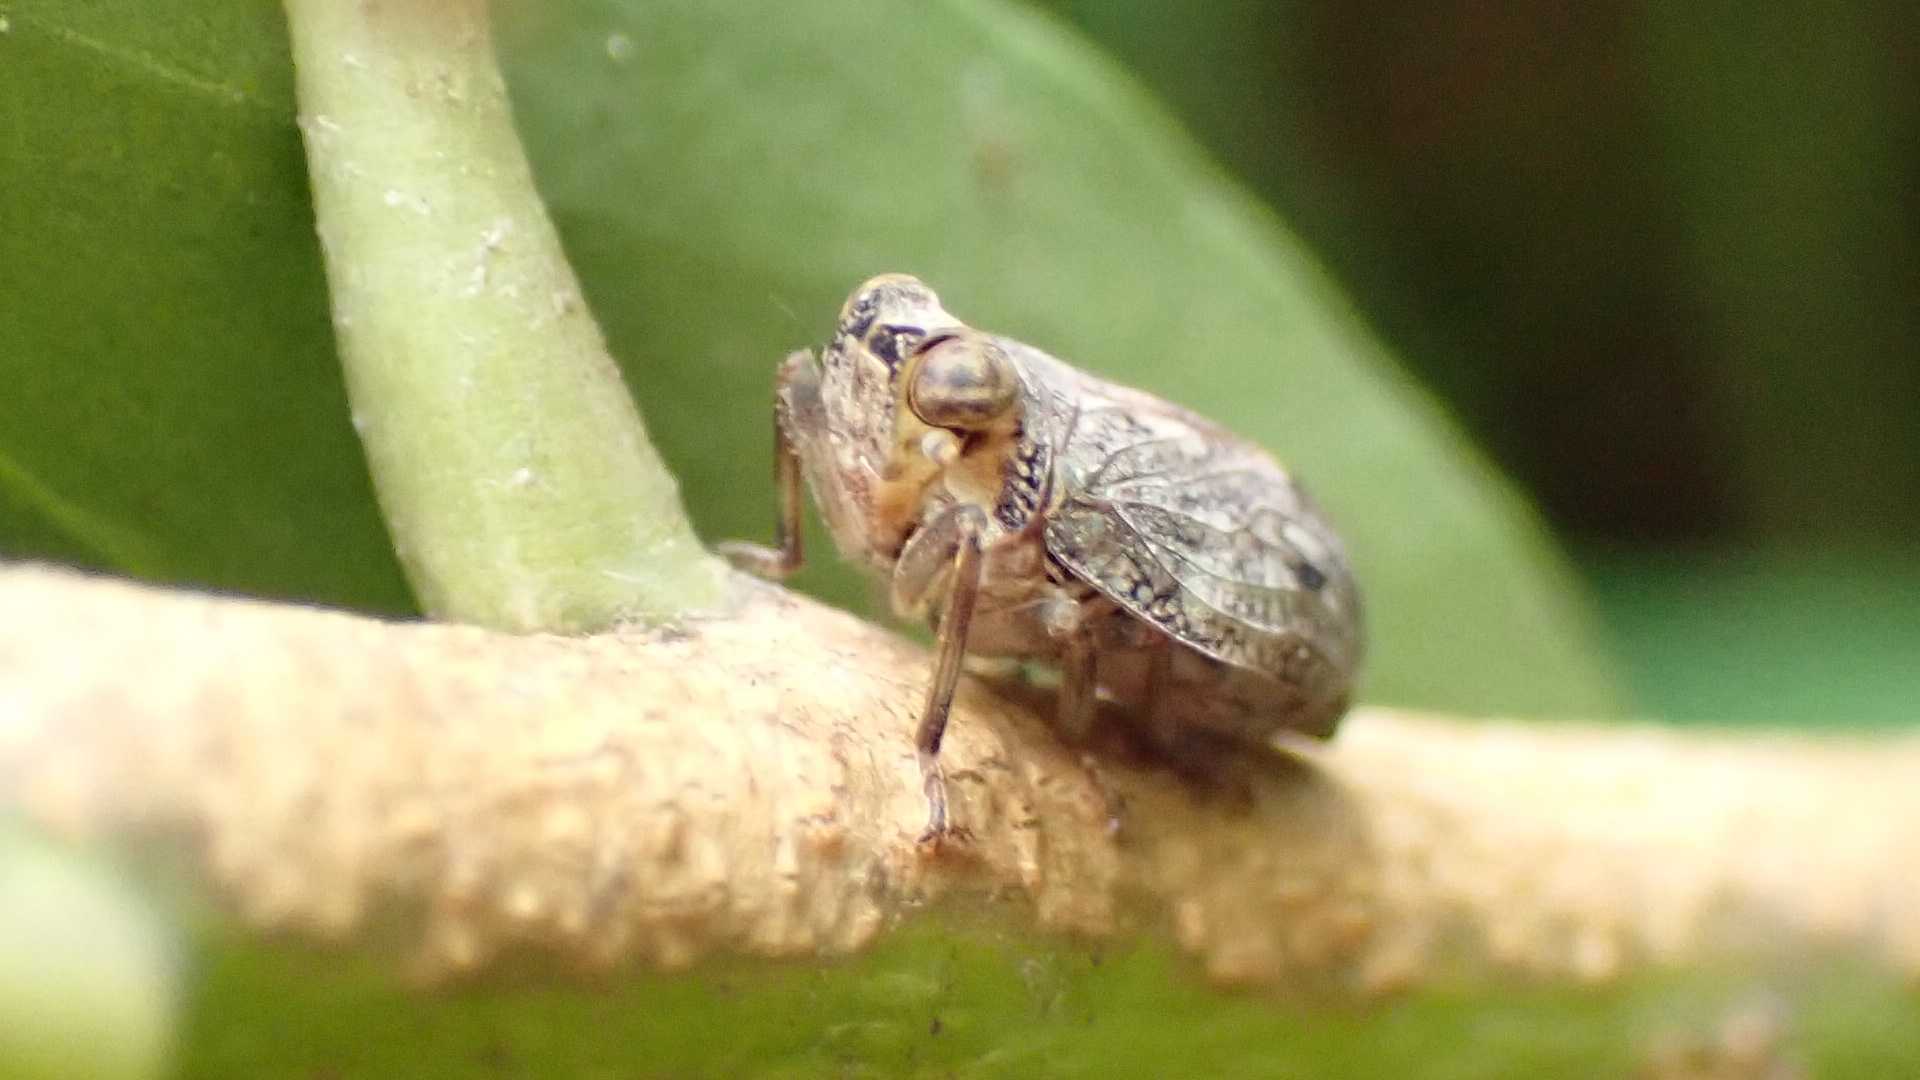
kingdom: Animalia
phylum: Arthropoda
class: Insecta
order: Hemiptera
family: Issidae
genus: Issus
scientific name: Issus coleoptratus
